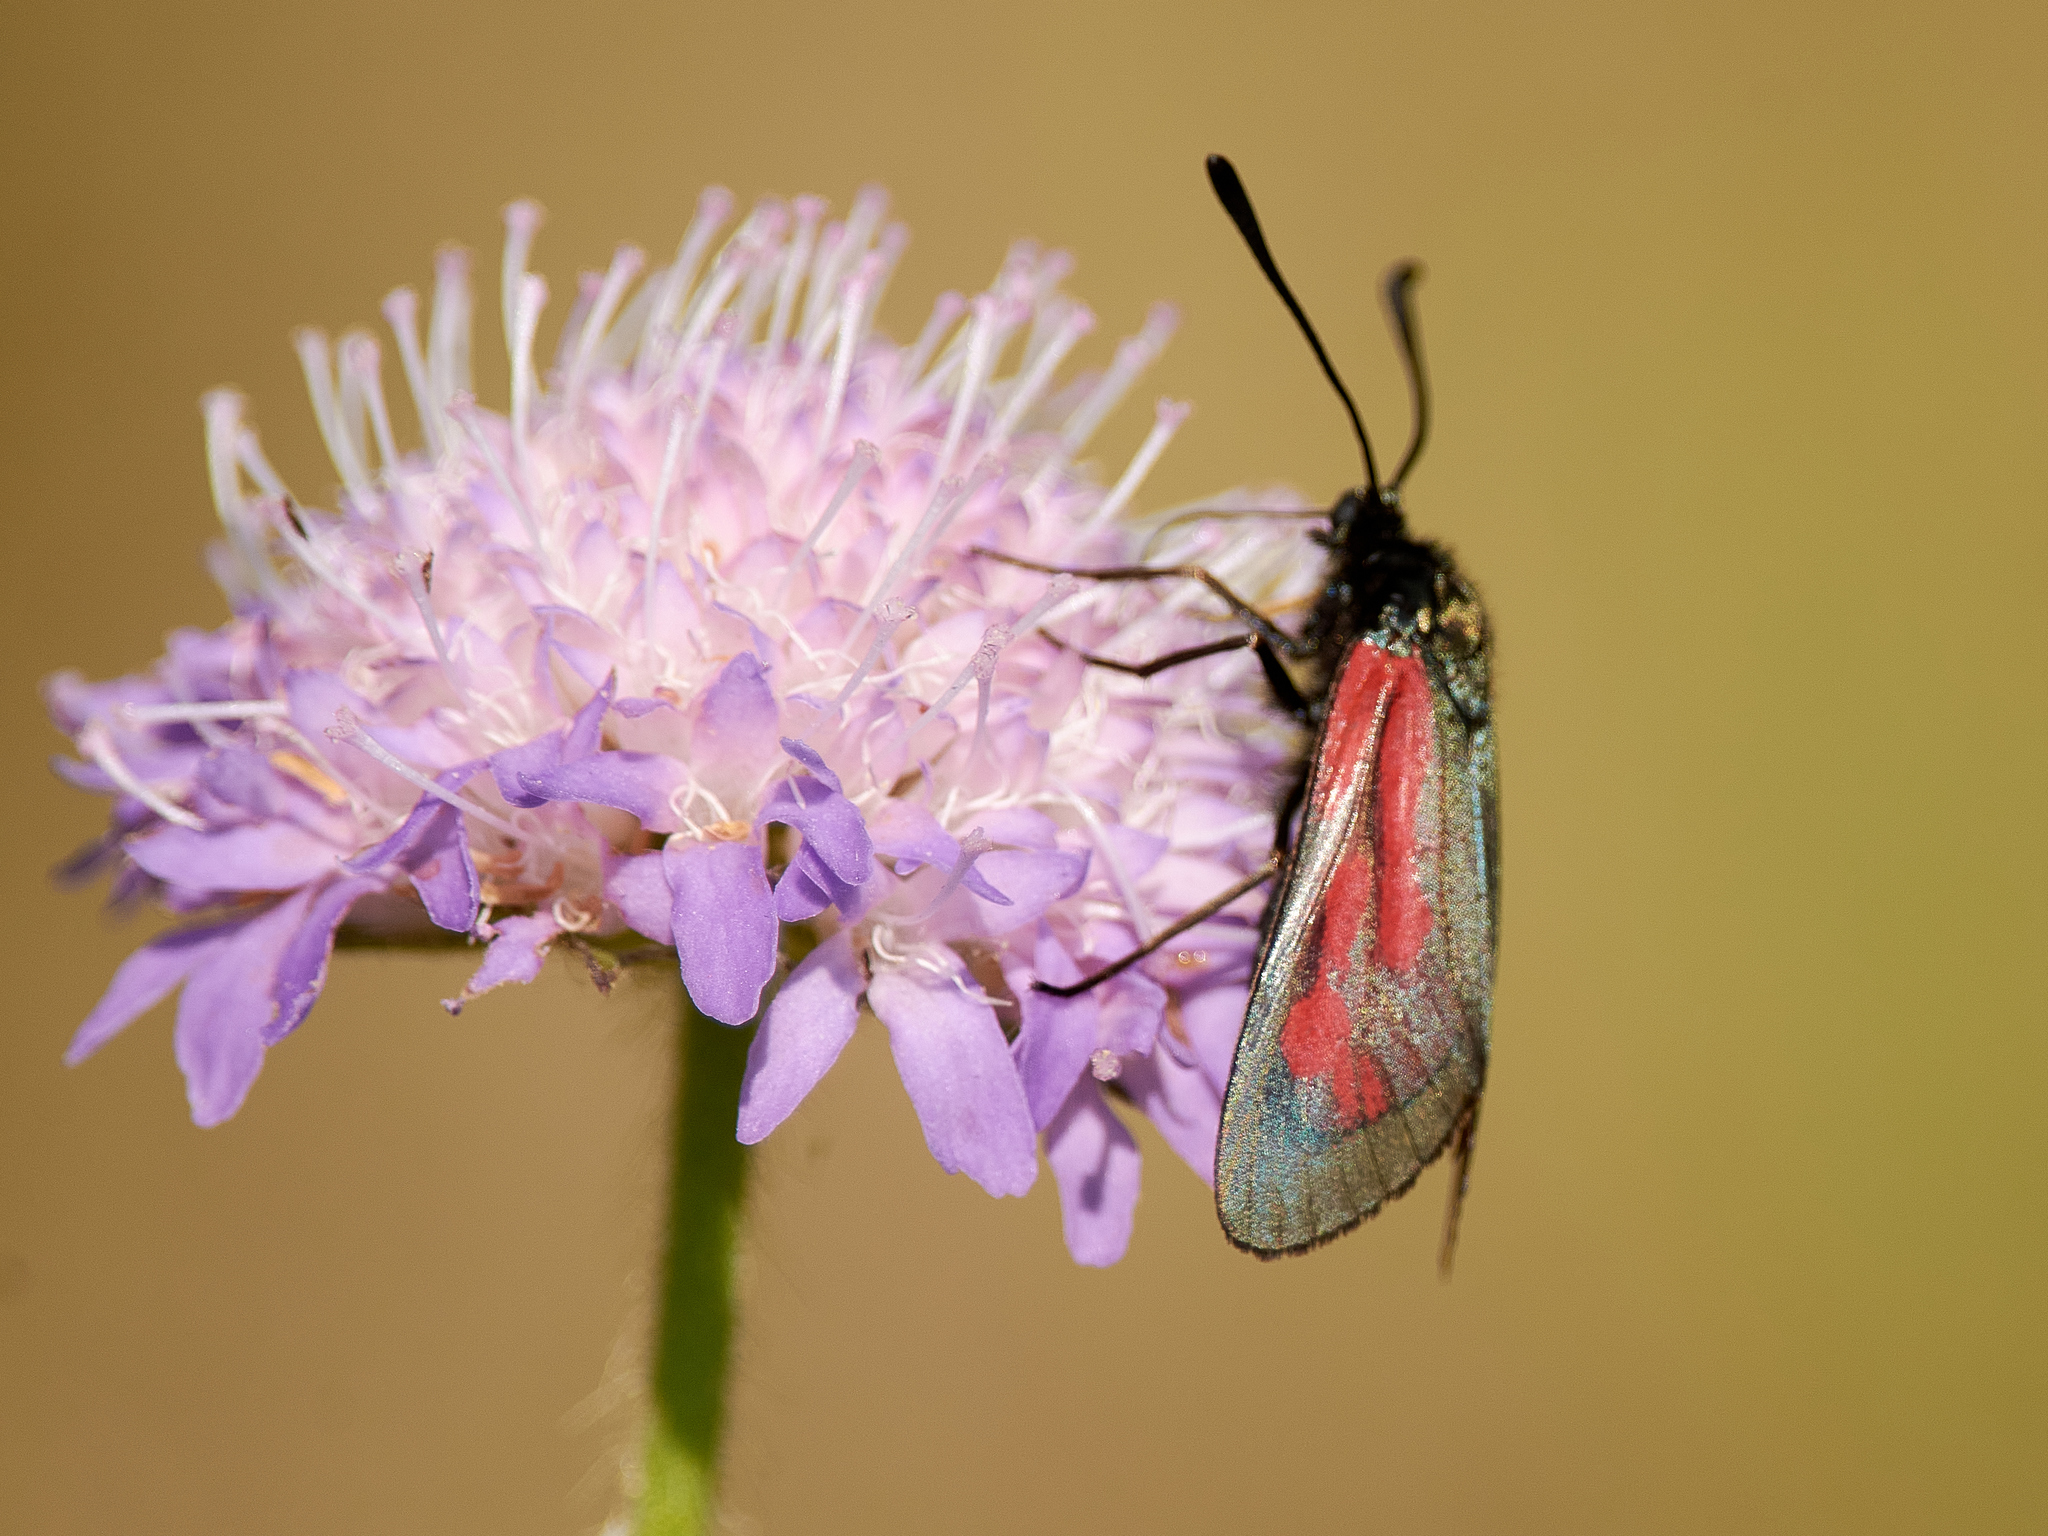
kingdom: Animalia
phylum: Arthropoda
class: Insecta
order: Lepidoptera
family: Zygaenidae
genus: Zygaena
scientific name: Zygaena minos
